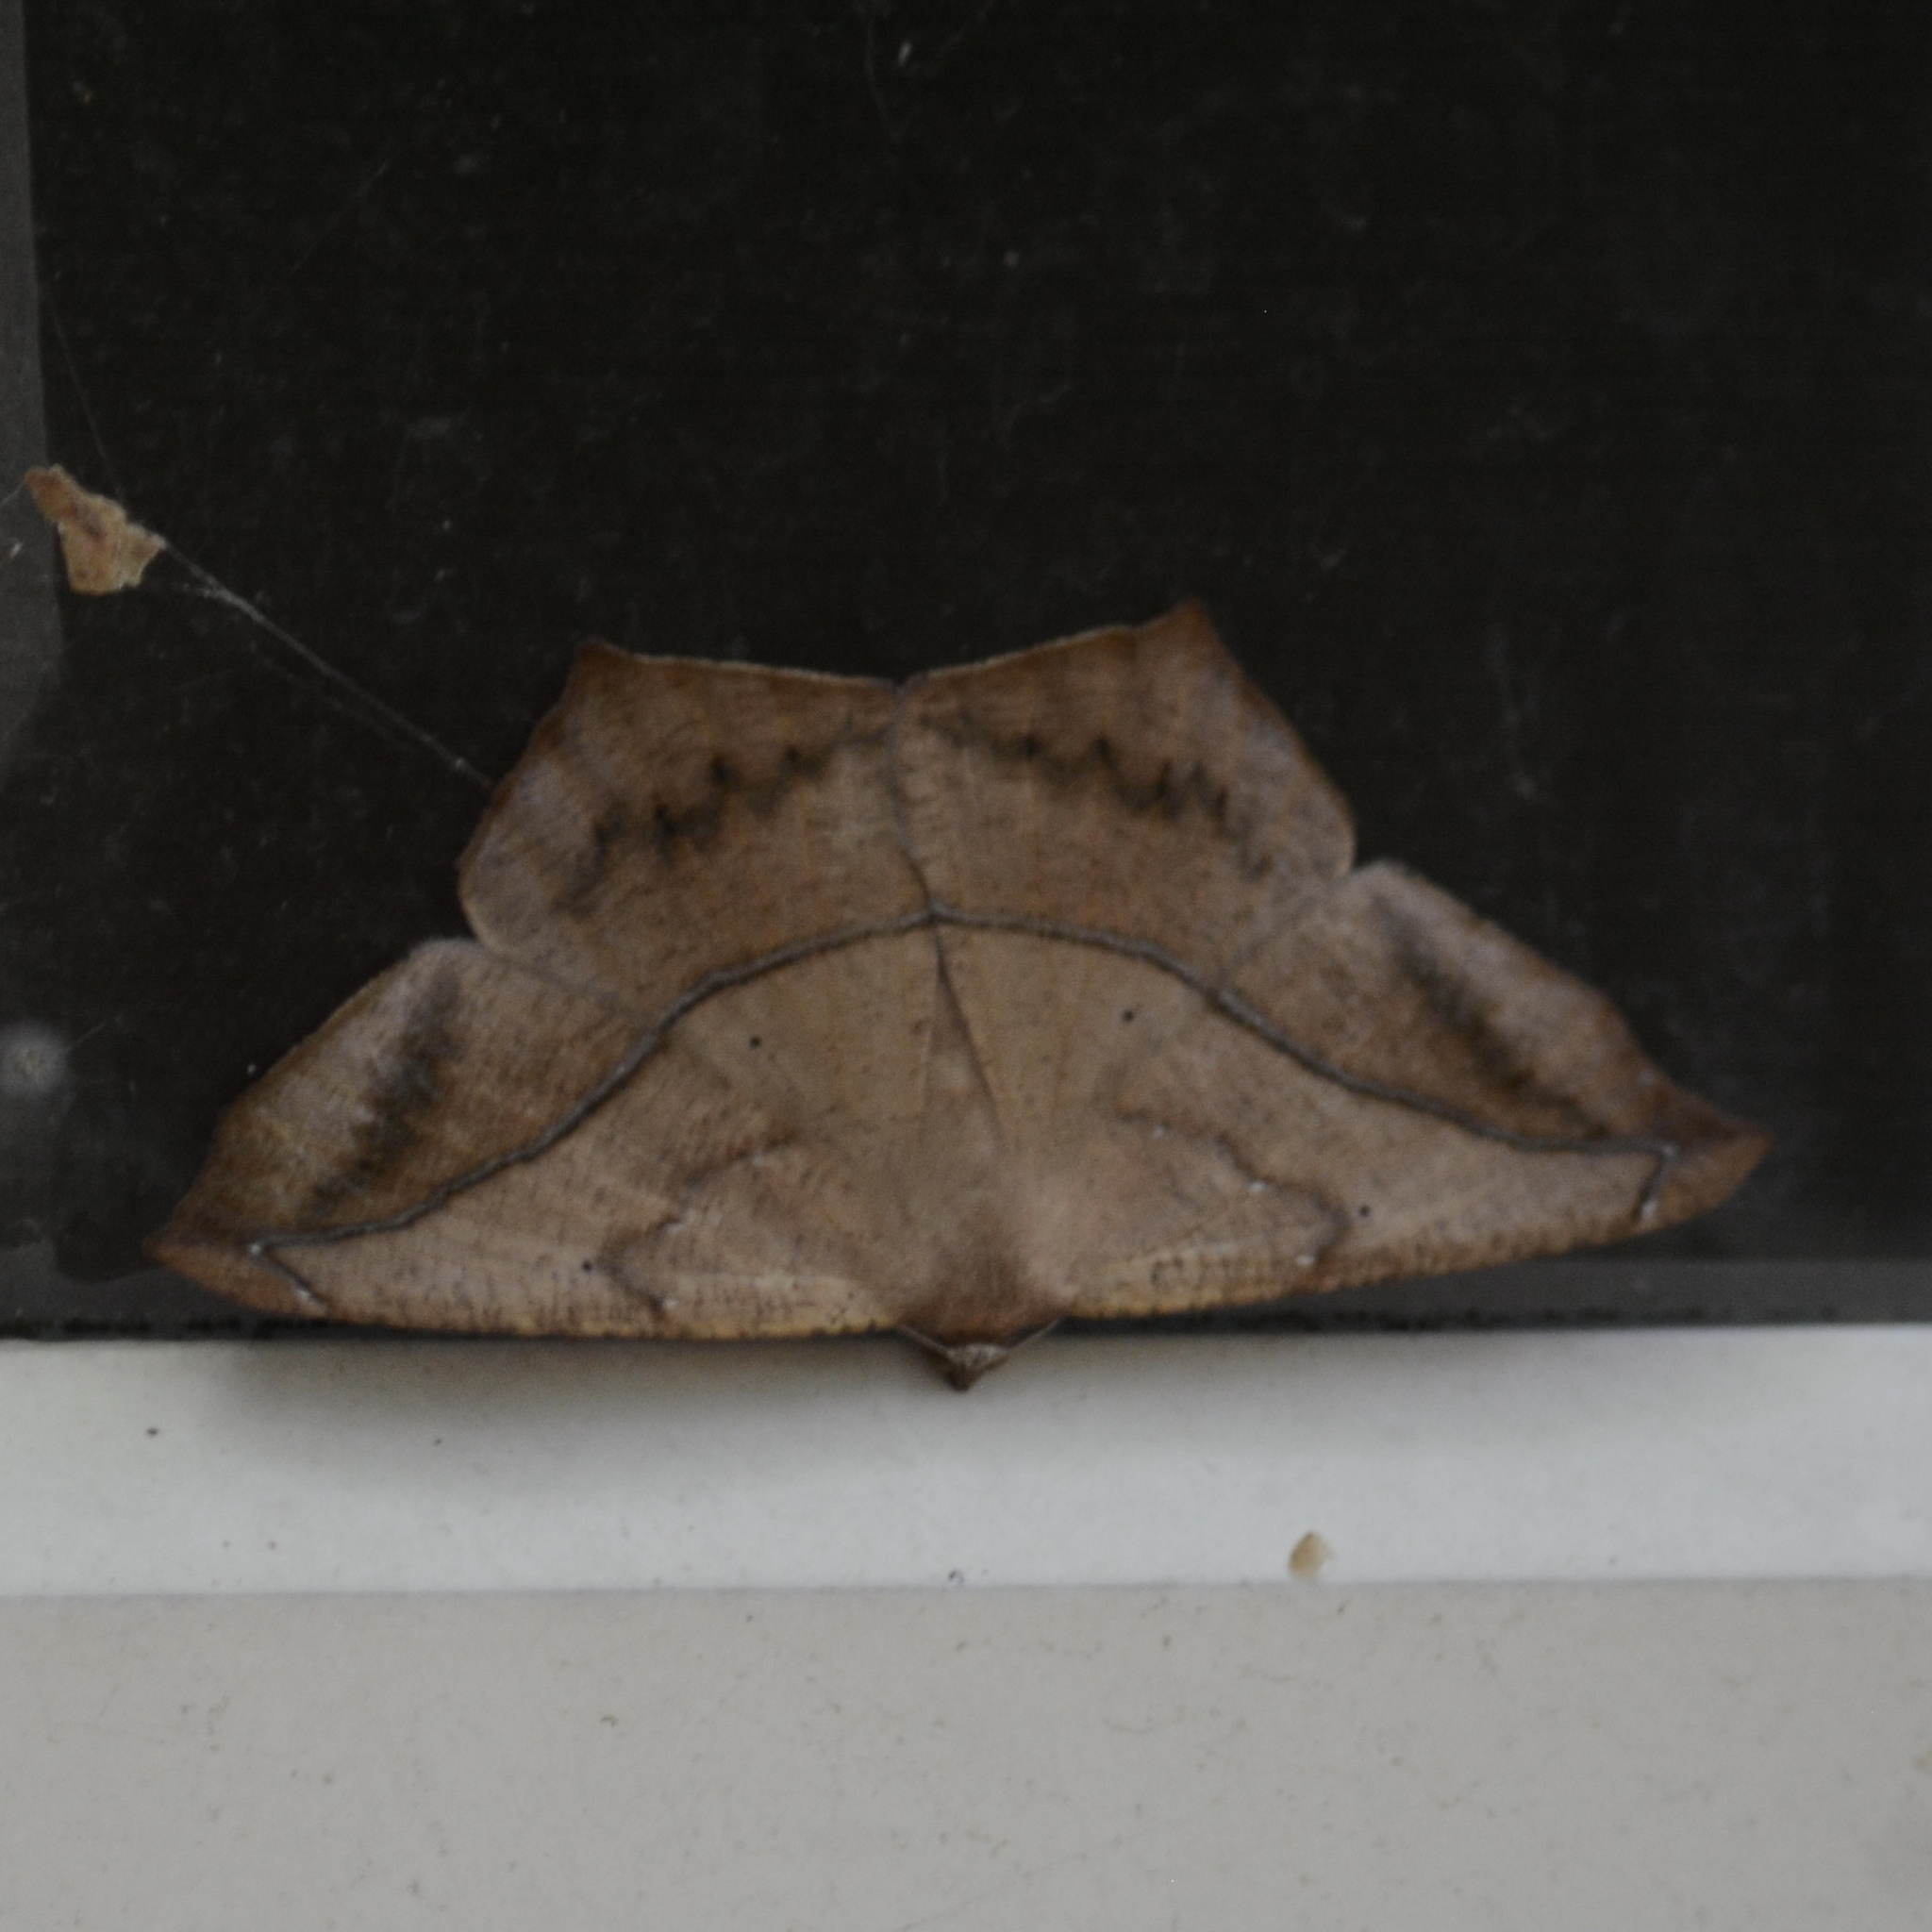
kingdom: Animalia
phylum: Arthropoda
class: Insecta
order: Lepidoptera
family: Geometridae
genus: Prochoerodes
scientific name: Prochoerodes lineola
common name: Large maple spanworm
